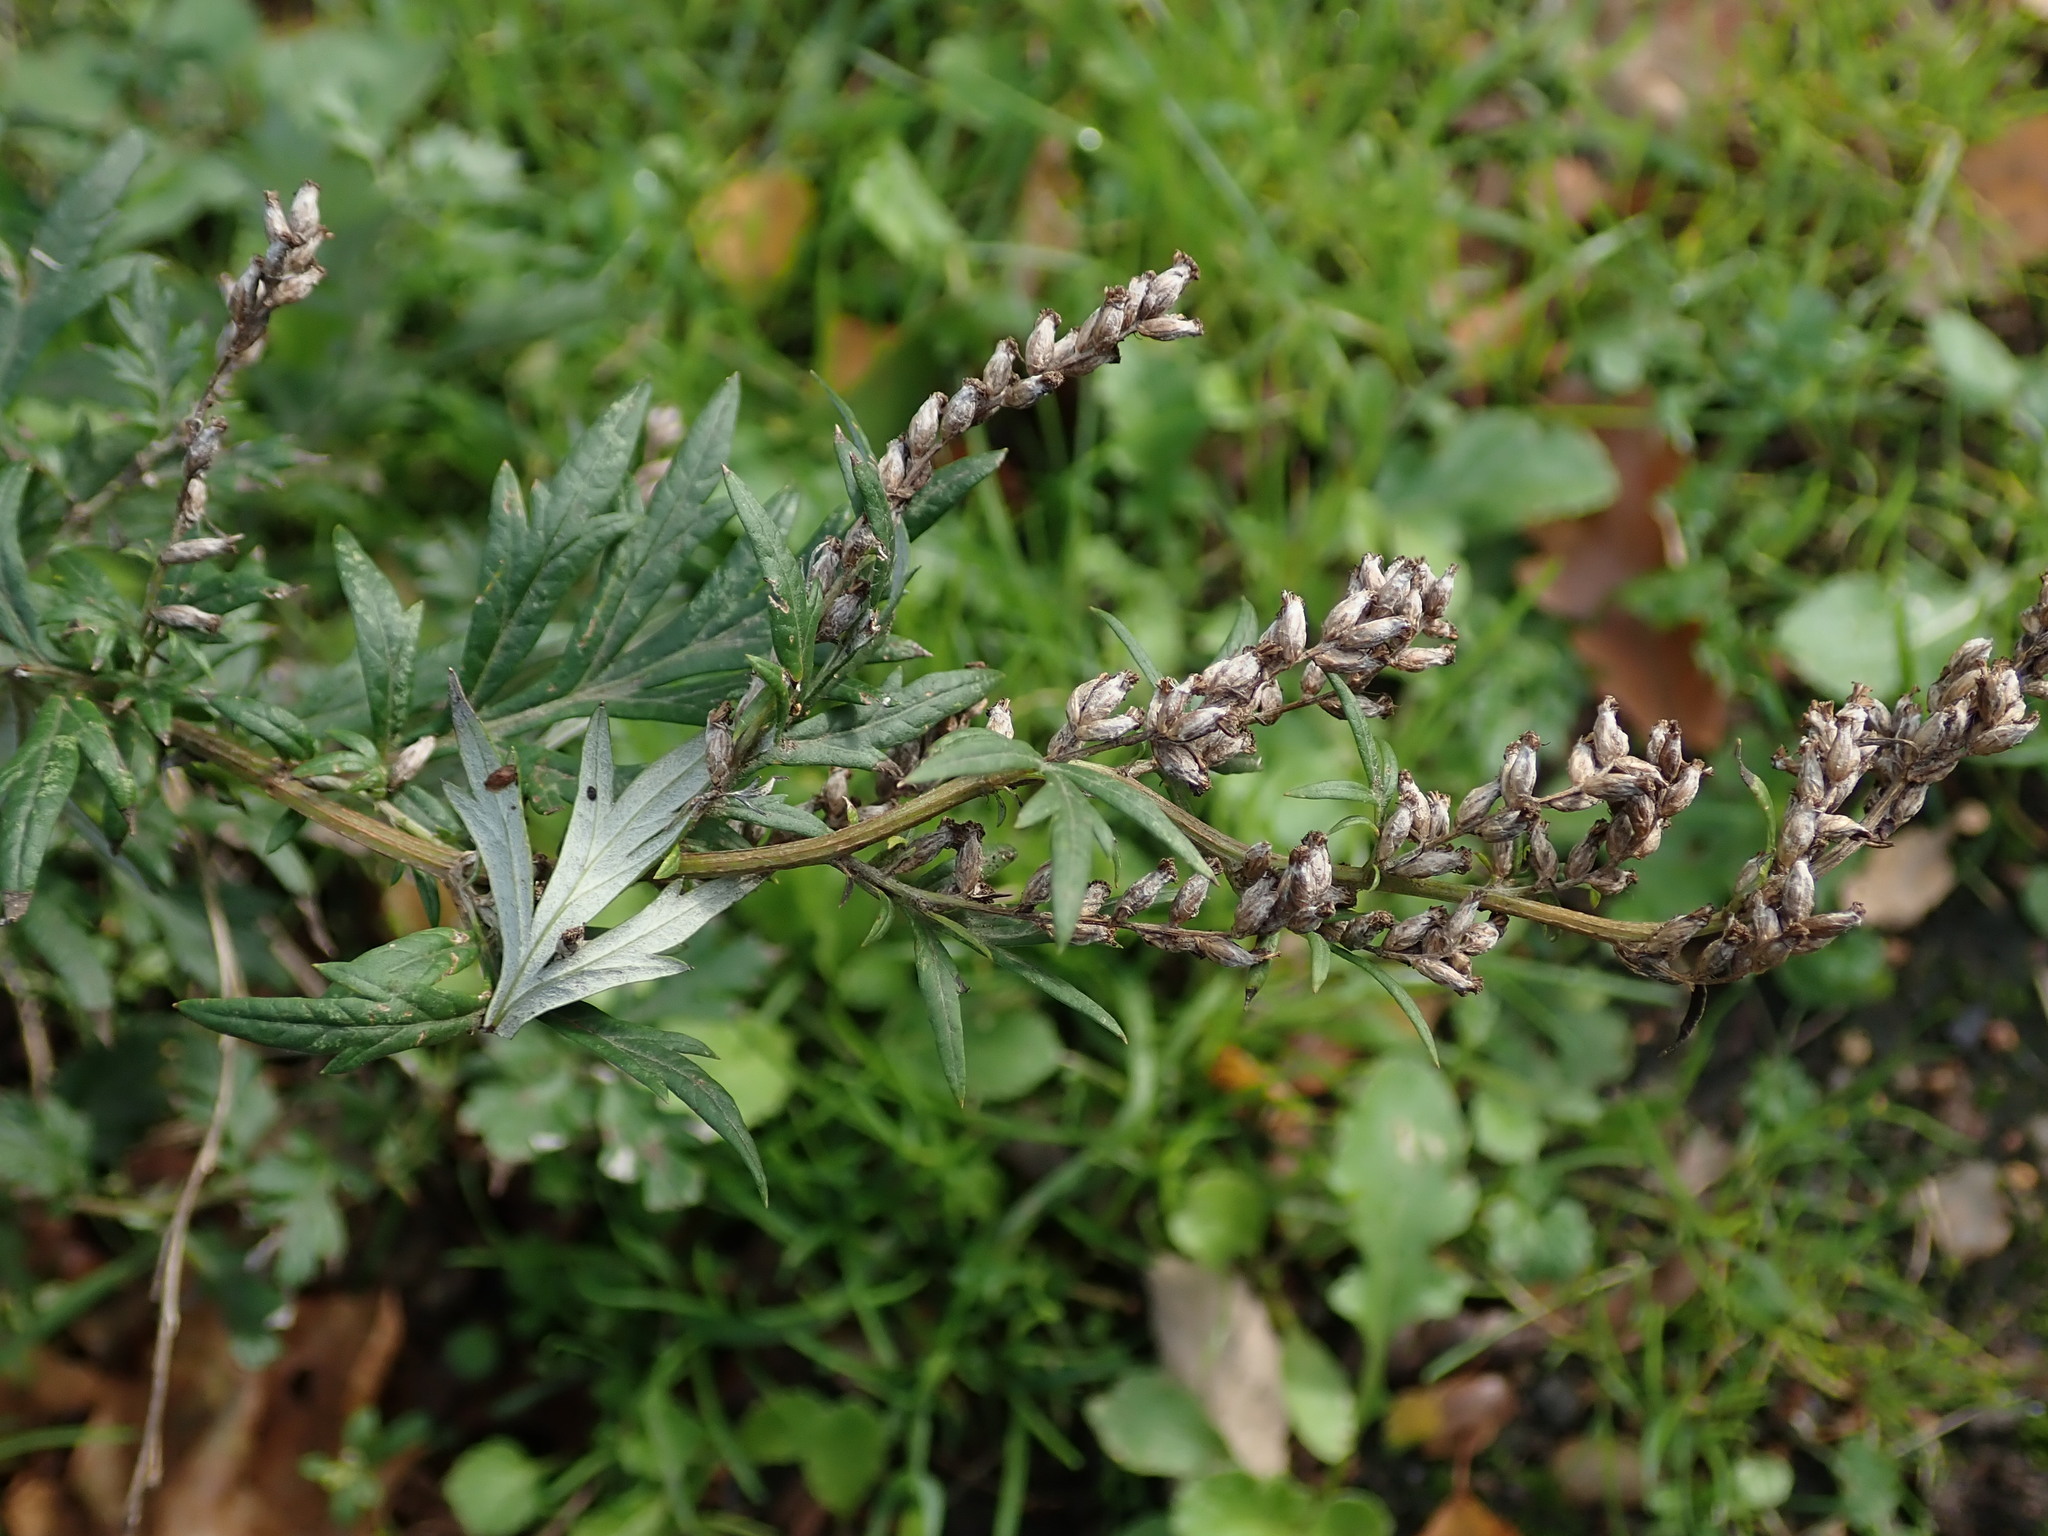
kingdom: Plantae
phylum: Tracheophyta
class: Magnoliopsida
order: Asterales
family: Asteraceae
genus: Artemisia
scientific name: Artemisia vulgaris
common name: Mugwort
